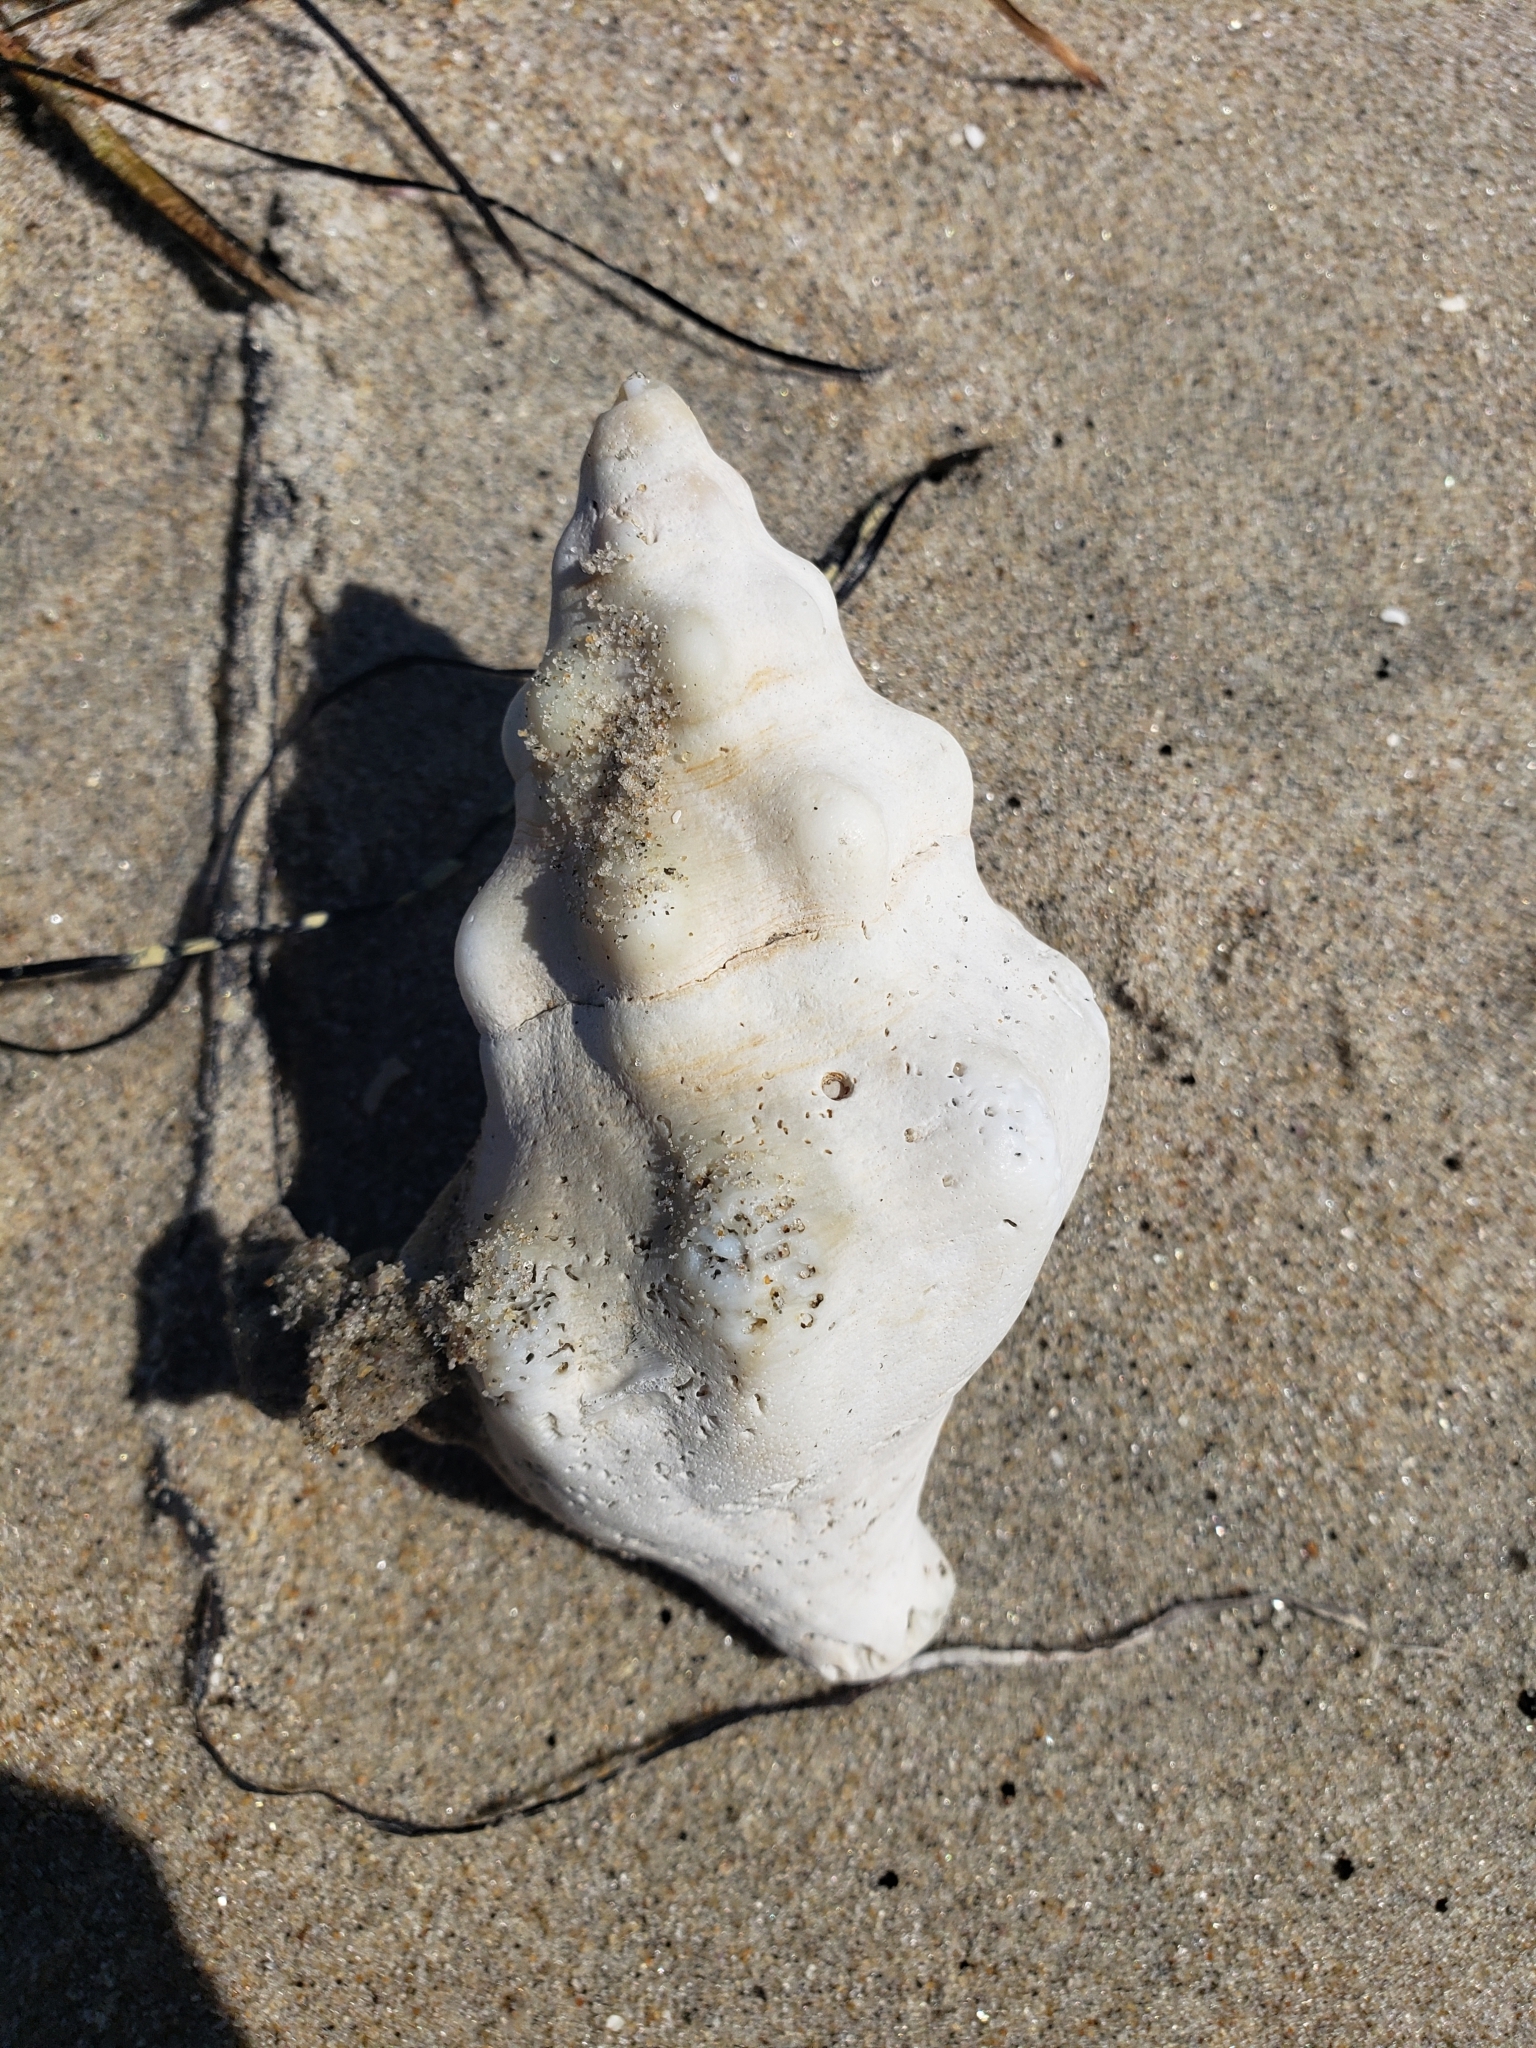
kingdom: Animalia
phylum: Mollusca
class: Gastropoda
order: Neogastropoda
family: Austrosiphonidae
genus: Kelletia
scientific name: Kelletia kelletii
